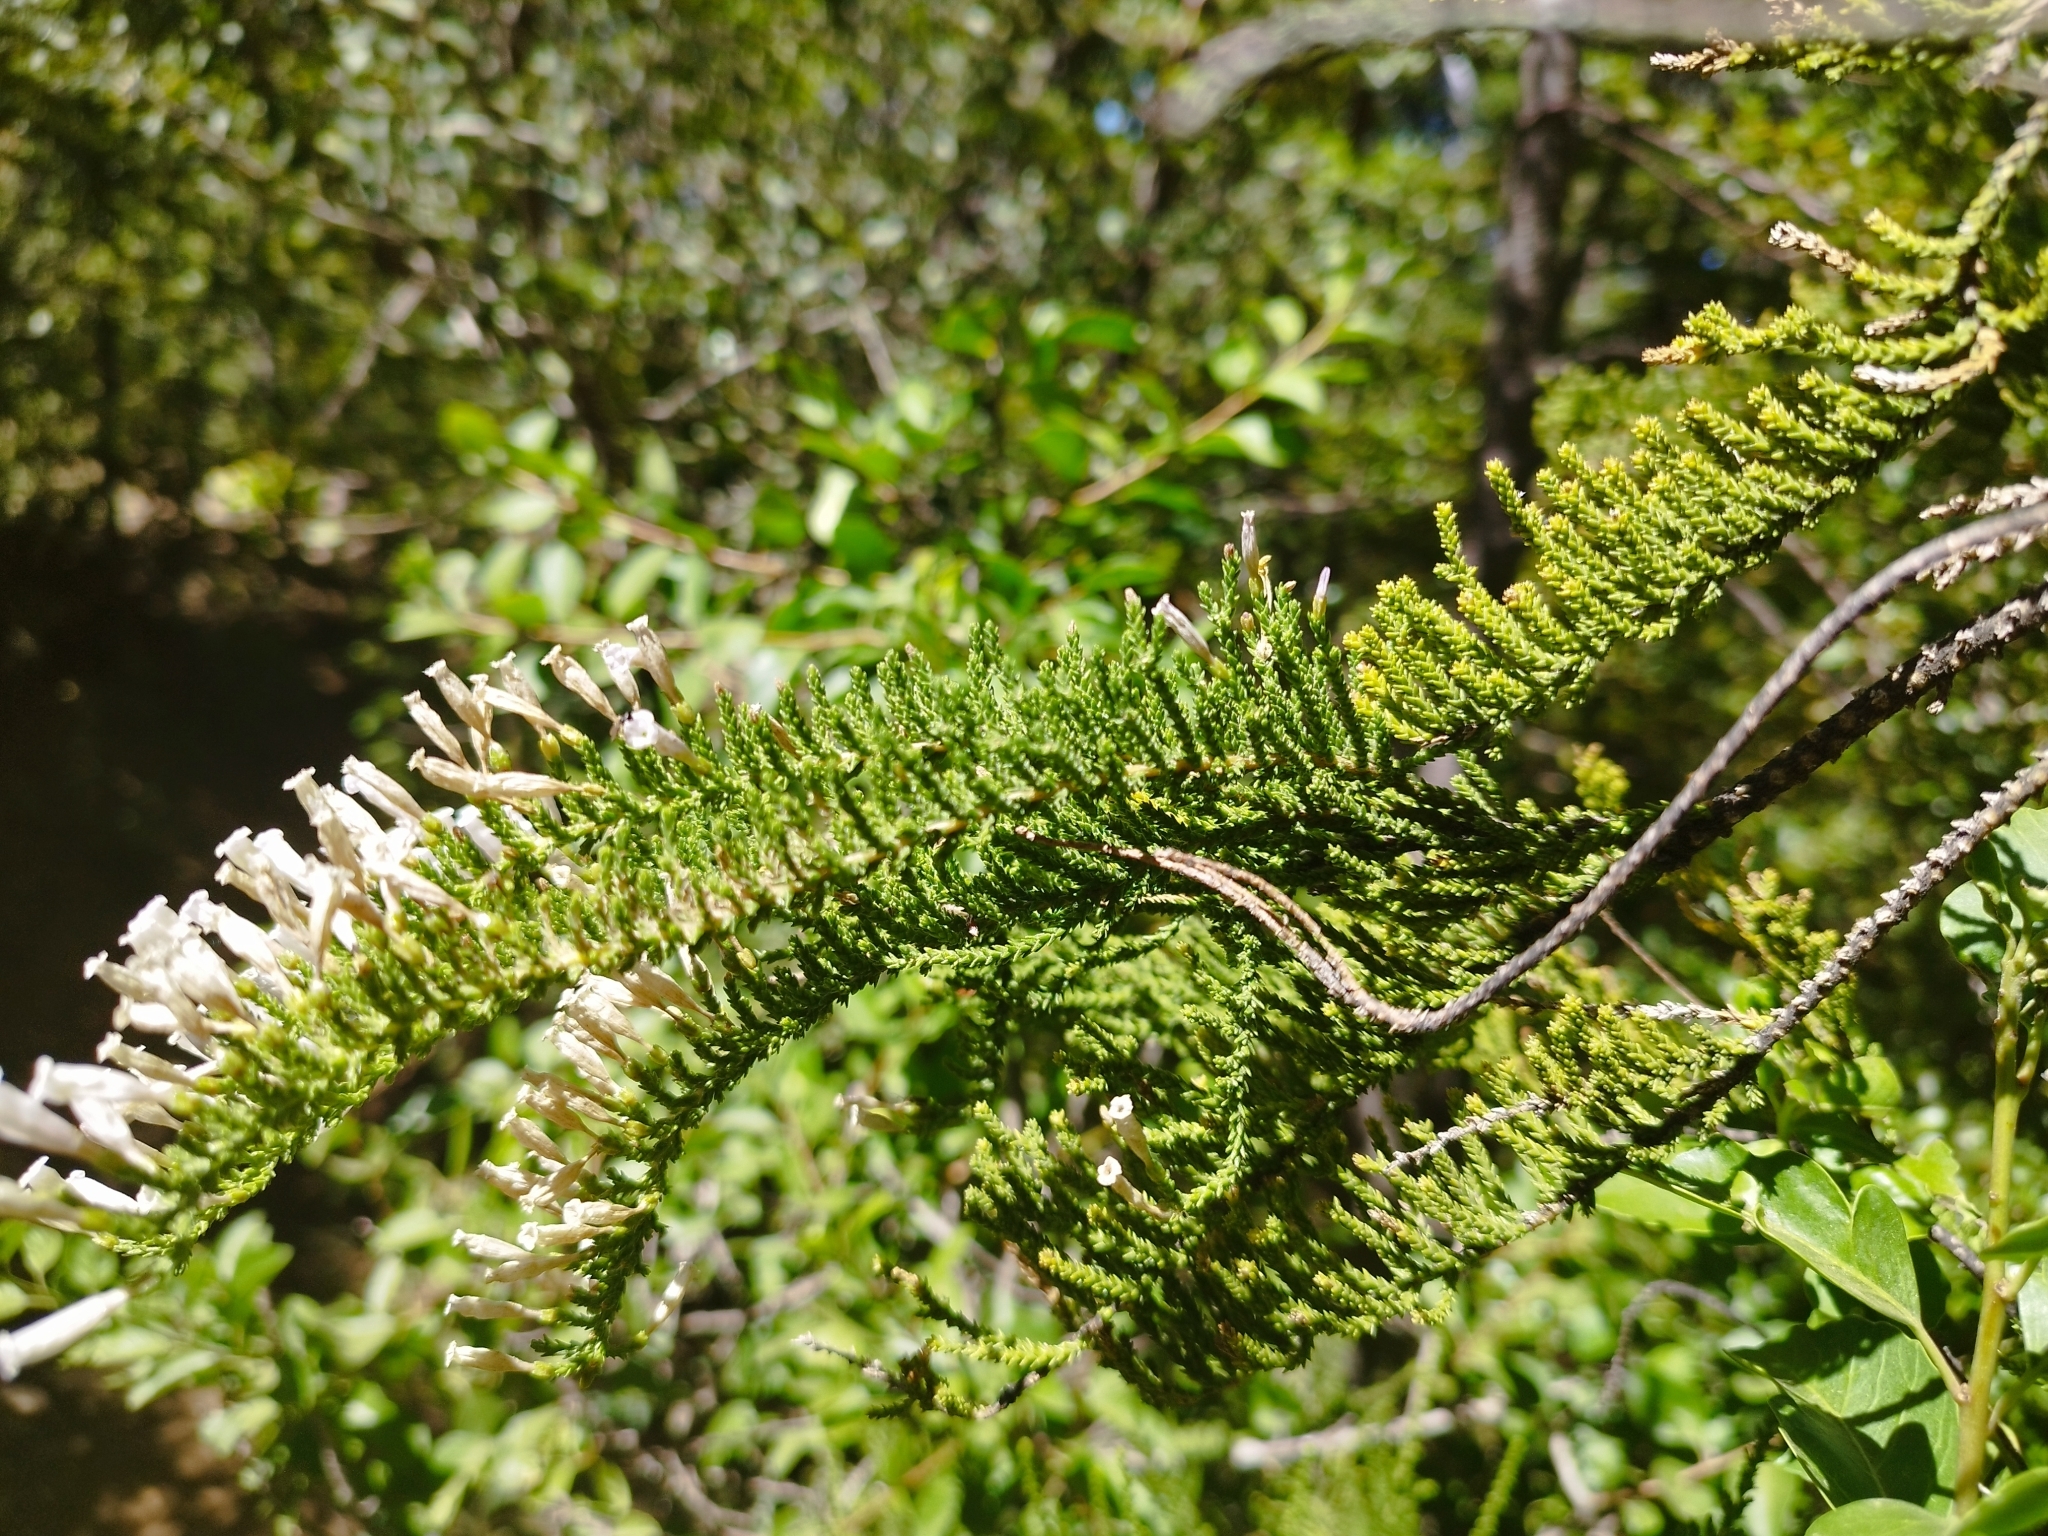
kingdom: Plantae
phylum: Tracheophyta
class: Magnoliopsida
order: Solanales
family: Solanaceae
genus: Fabiana
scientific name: Fabiana imbricata
